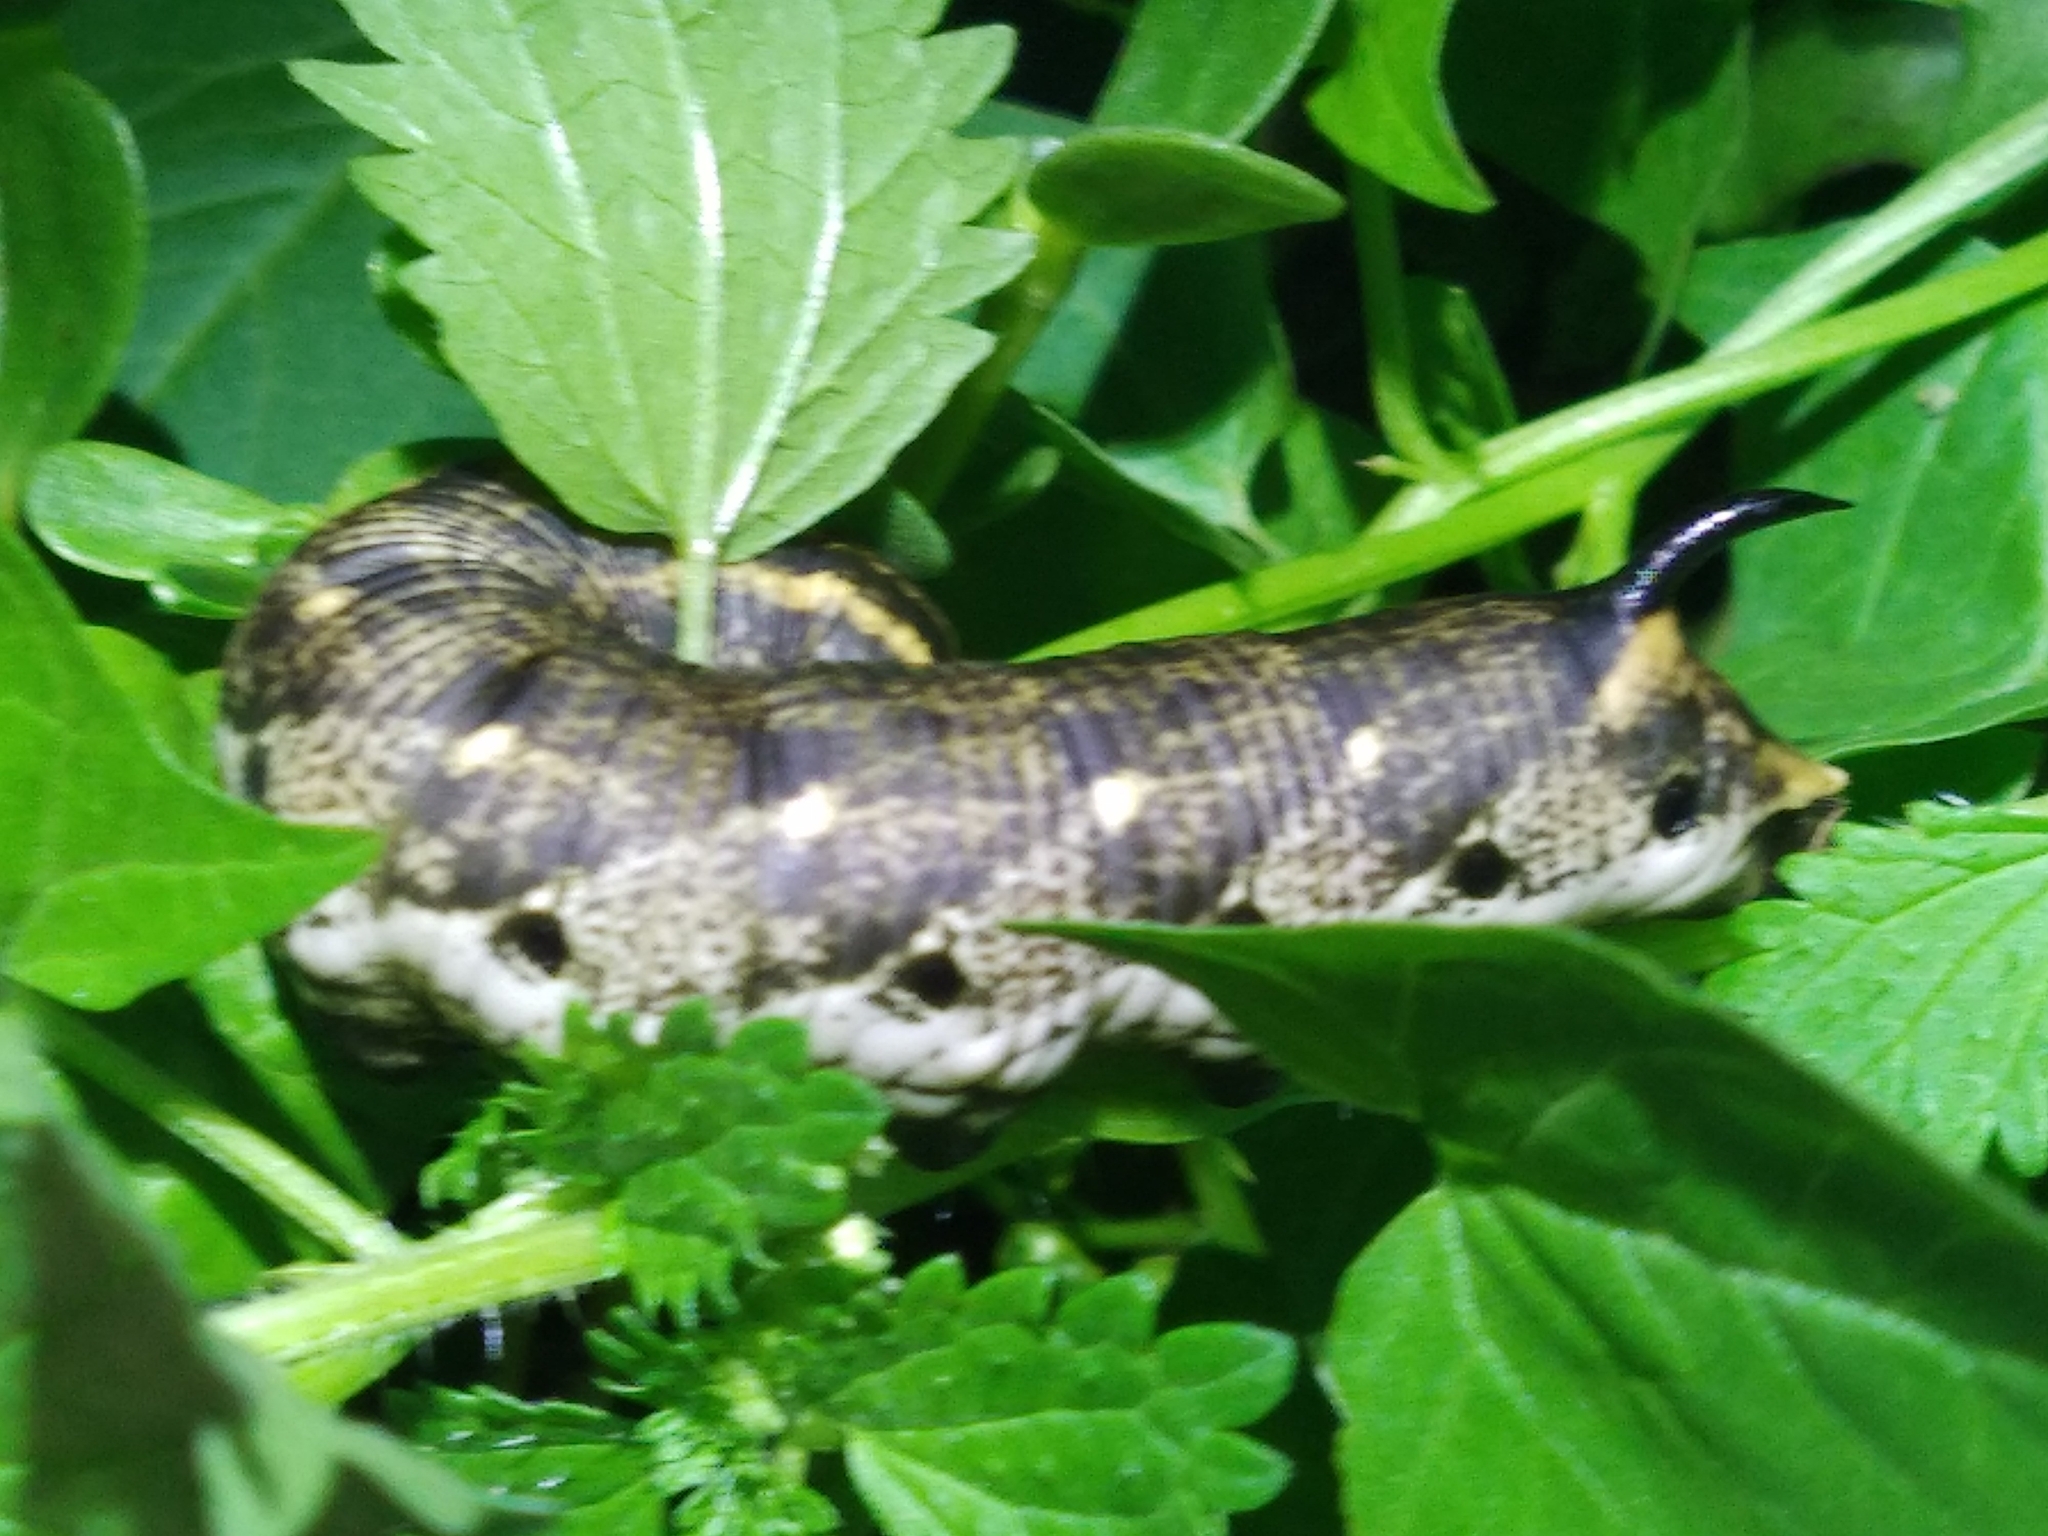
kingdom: Animalia
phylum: Arthropoda
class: Insecta
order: Lepidoptera
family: Sphingidae
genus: Agrius
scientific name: Agrius convolvuli
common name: Convolvulus hawkmoth
